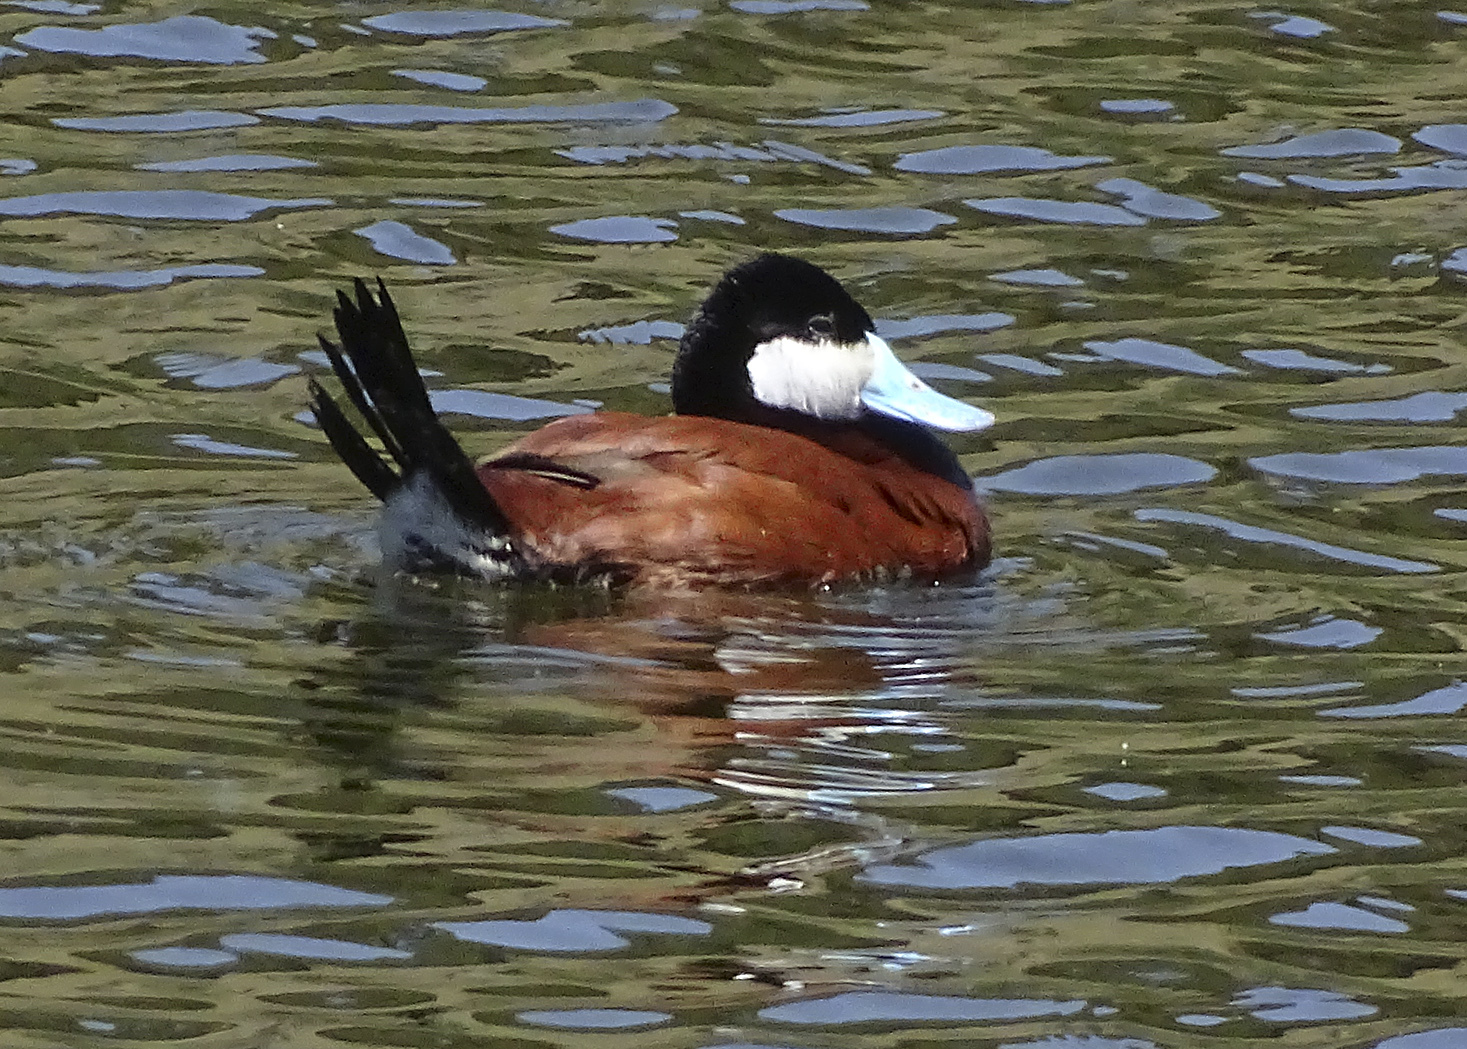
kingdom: Animalia
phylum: Chordata
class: Aves
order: Anseriformes
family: Anatidae
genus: Oxyura
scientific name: Oxyura jamaicensis
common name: Ruddy duck
